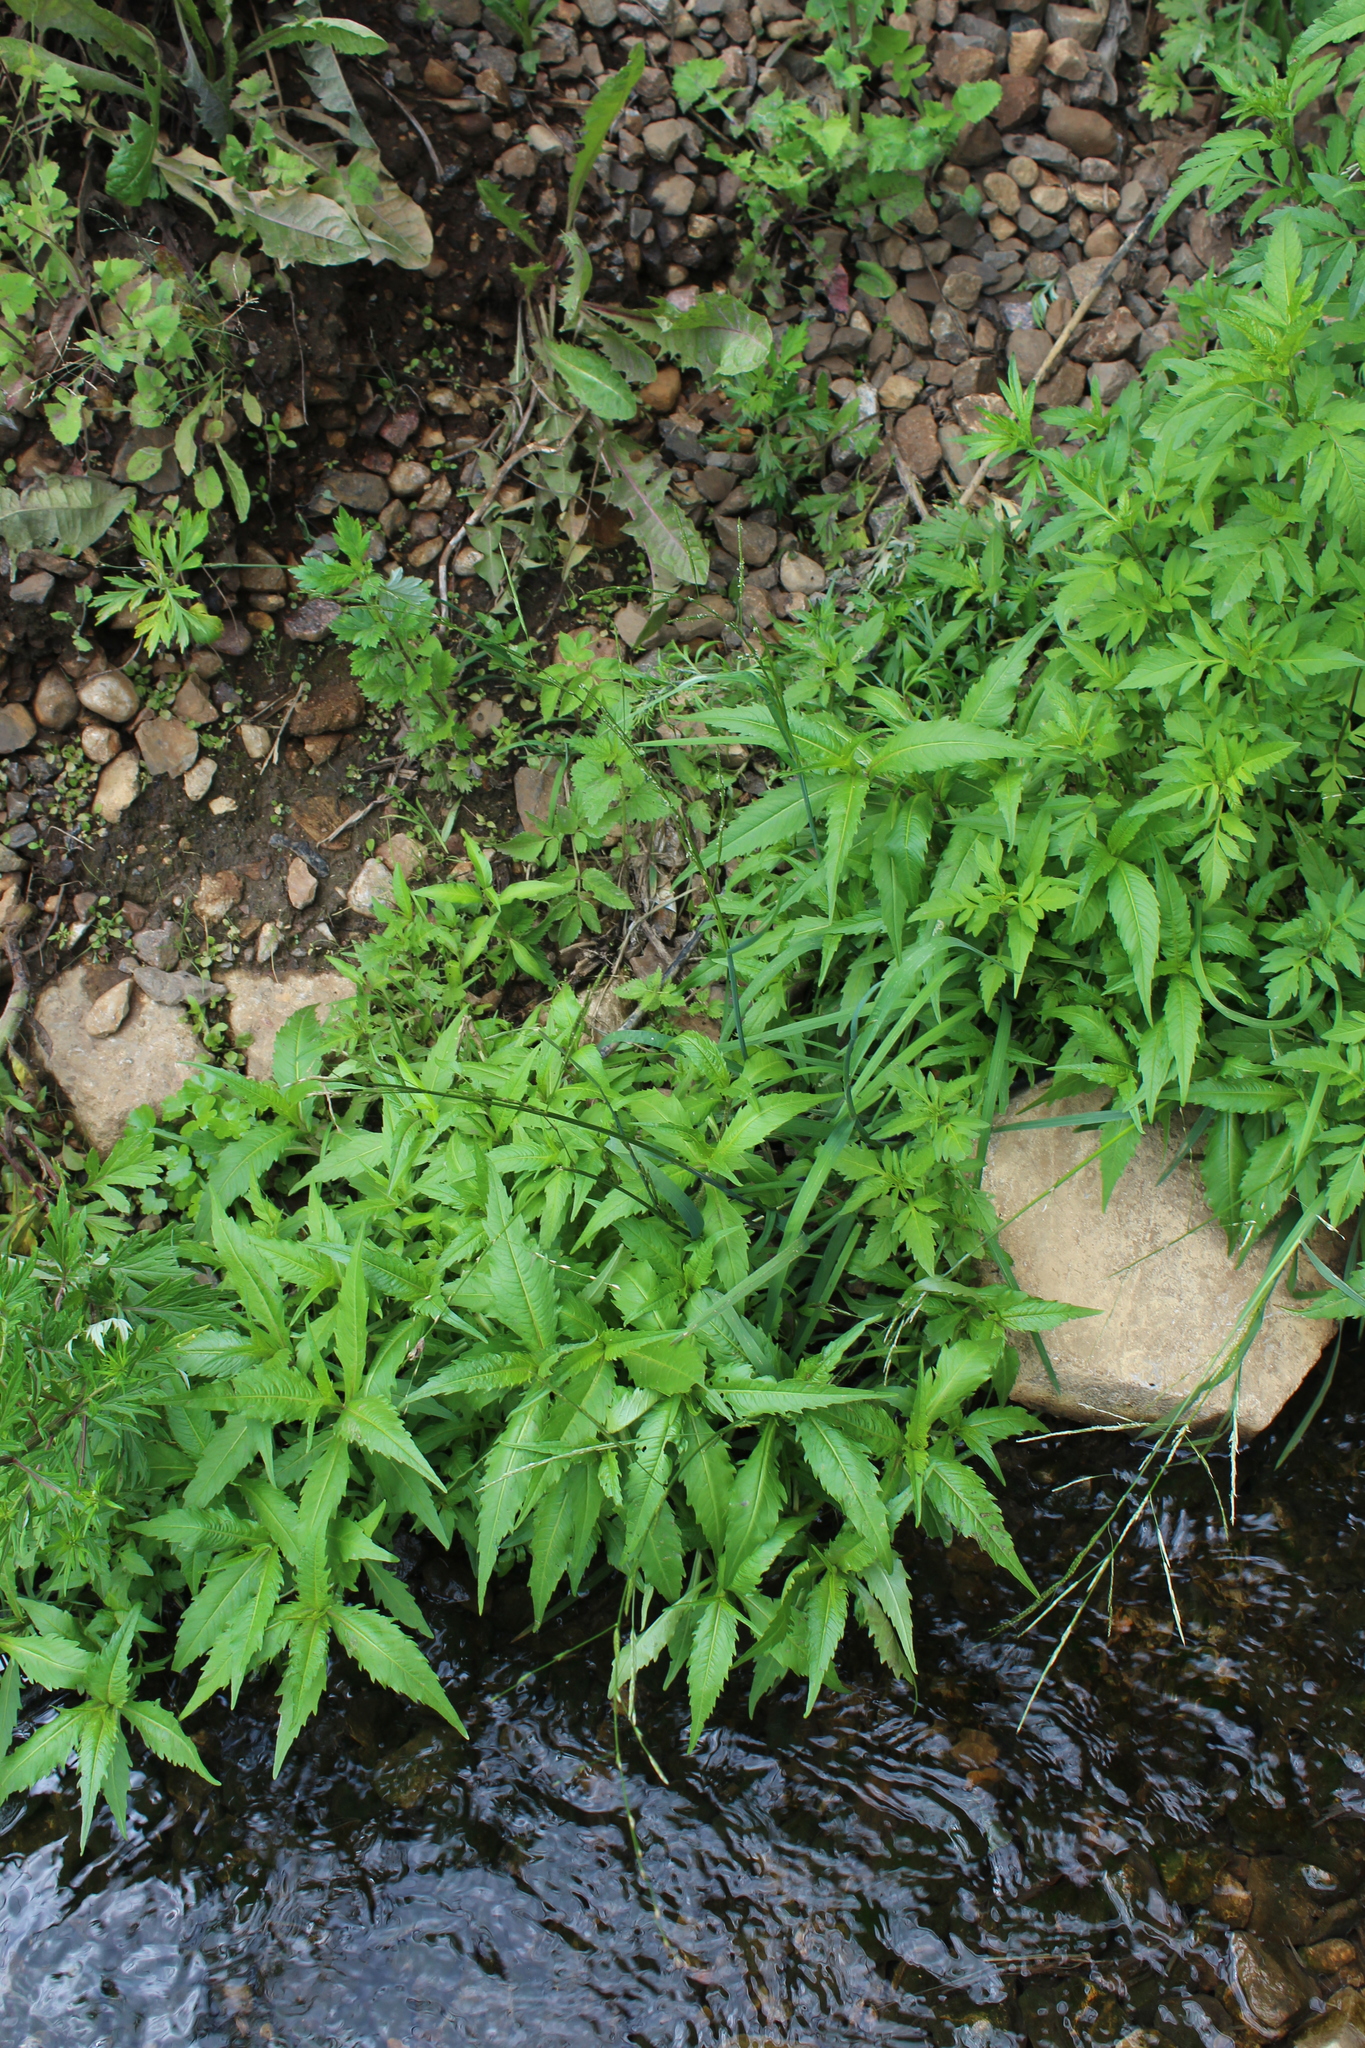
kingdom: Plantae
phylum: Tracheophyta
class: Liliopsida
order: Poales
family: Poaceae
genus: Glyceria
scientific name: Glyceria fluitans
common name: Floating sweet-grass
